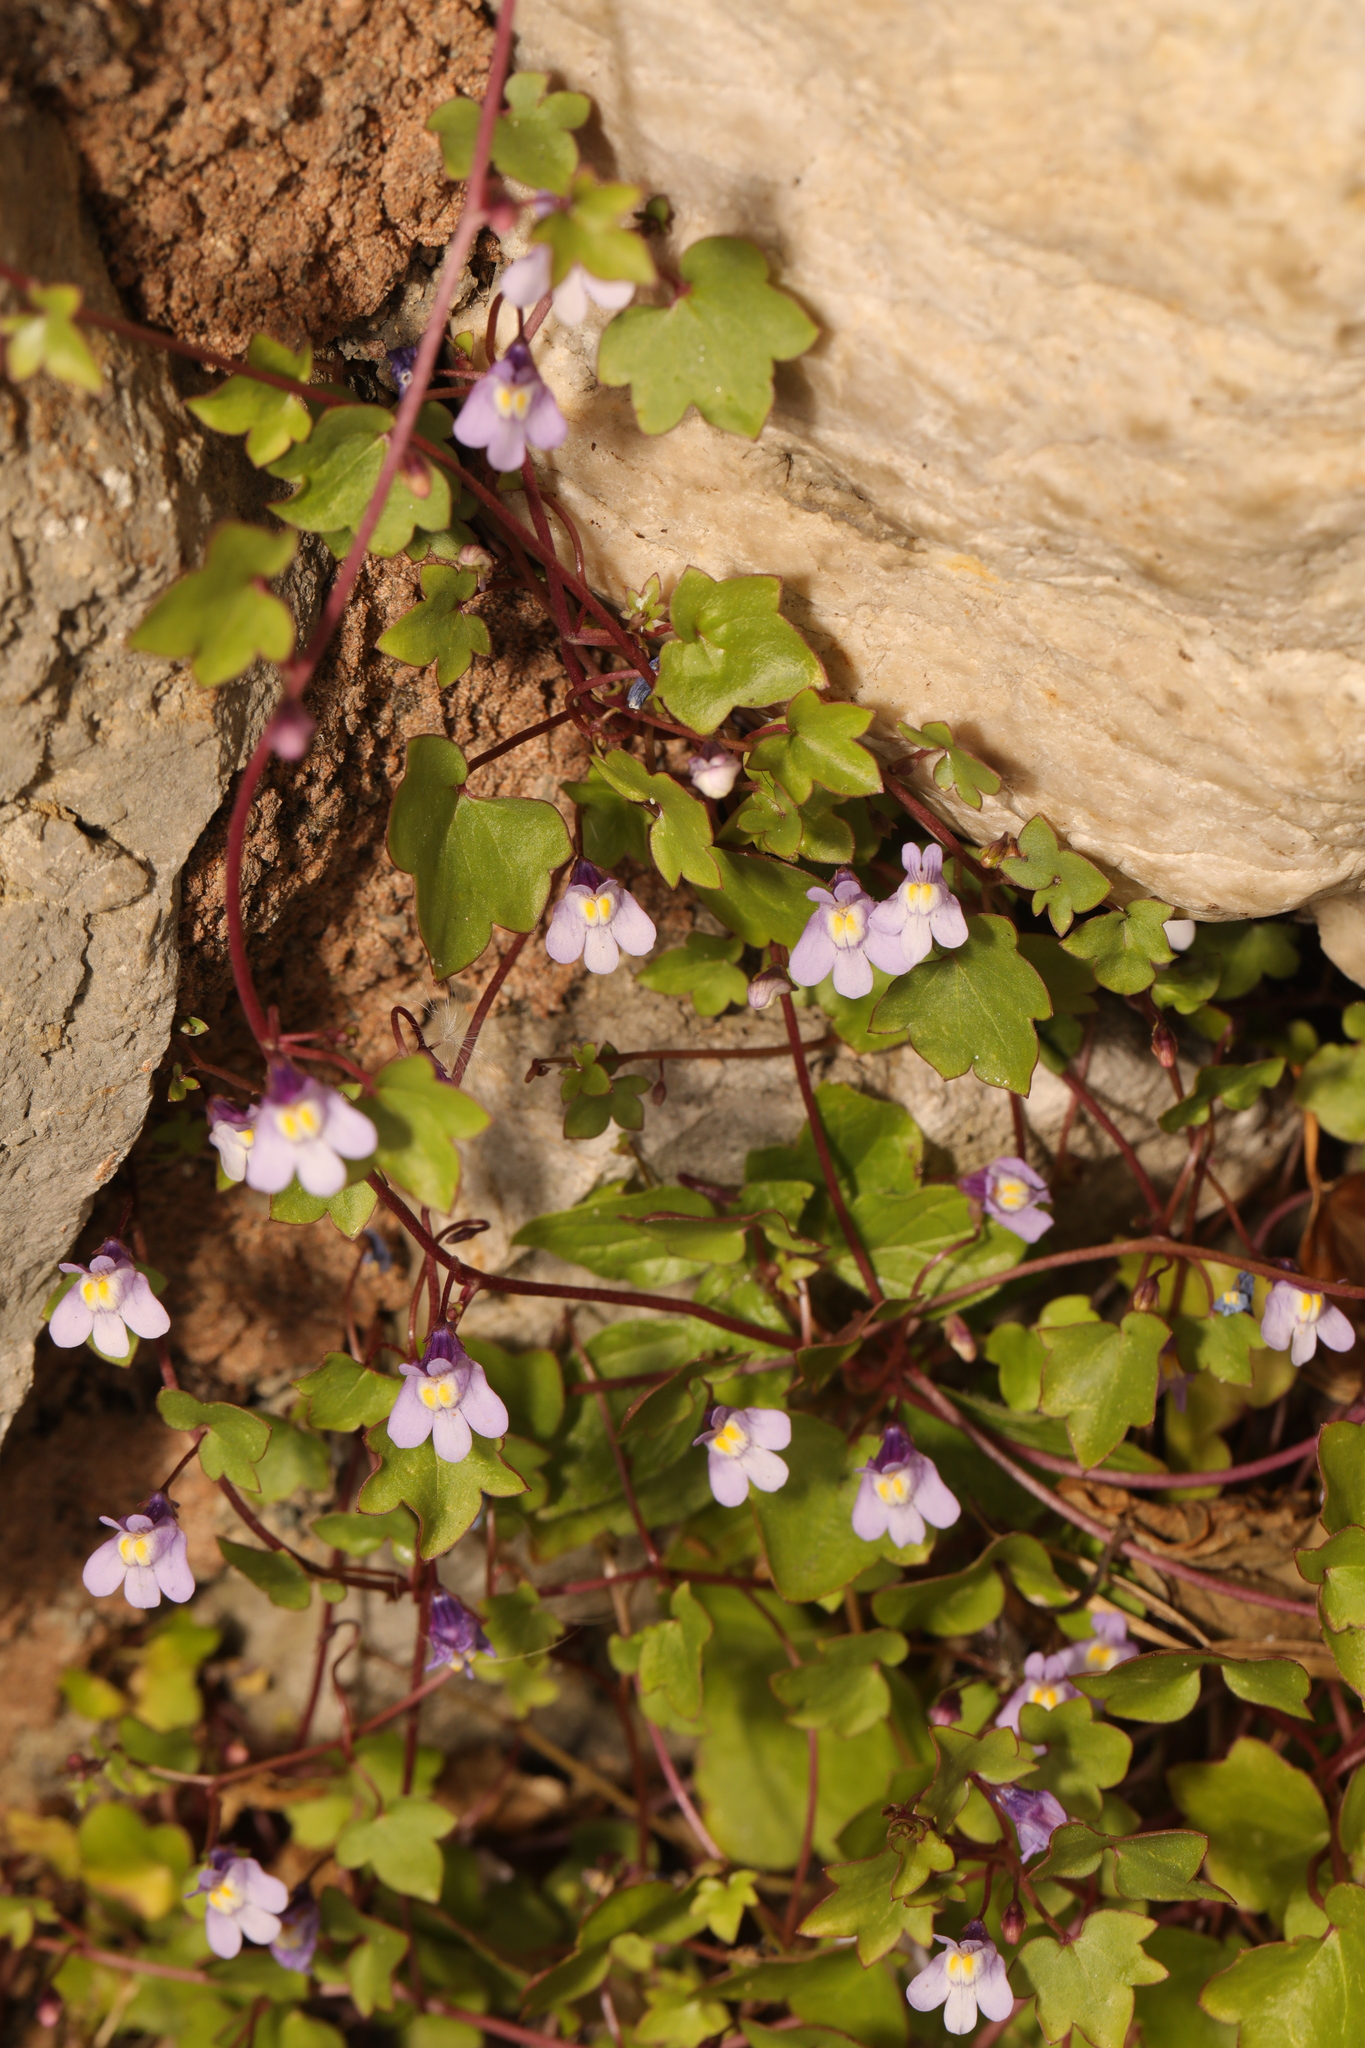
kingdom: Plantae
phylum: Tracheophyta
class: Magnoliopsida
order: Lamiales
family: Plantaginaceae
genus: Cymbalaria
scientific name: Cymbalaria muralis
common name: Ivy-leaved toadflax
